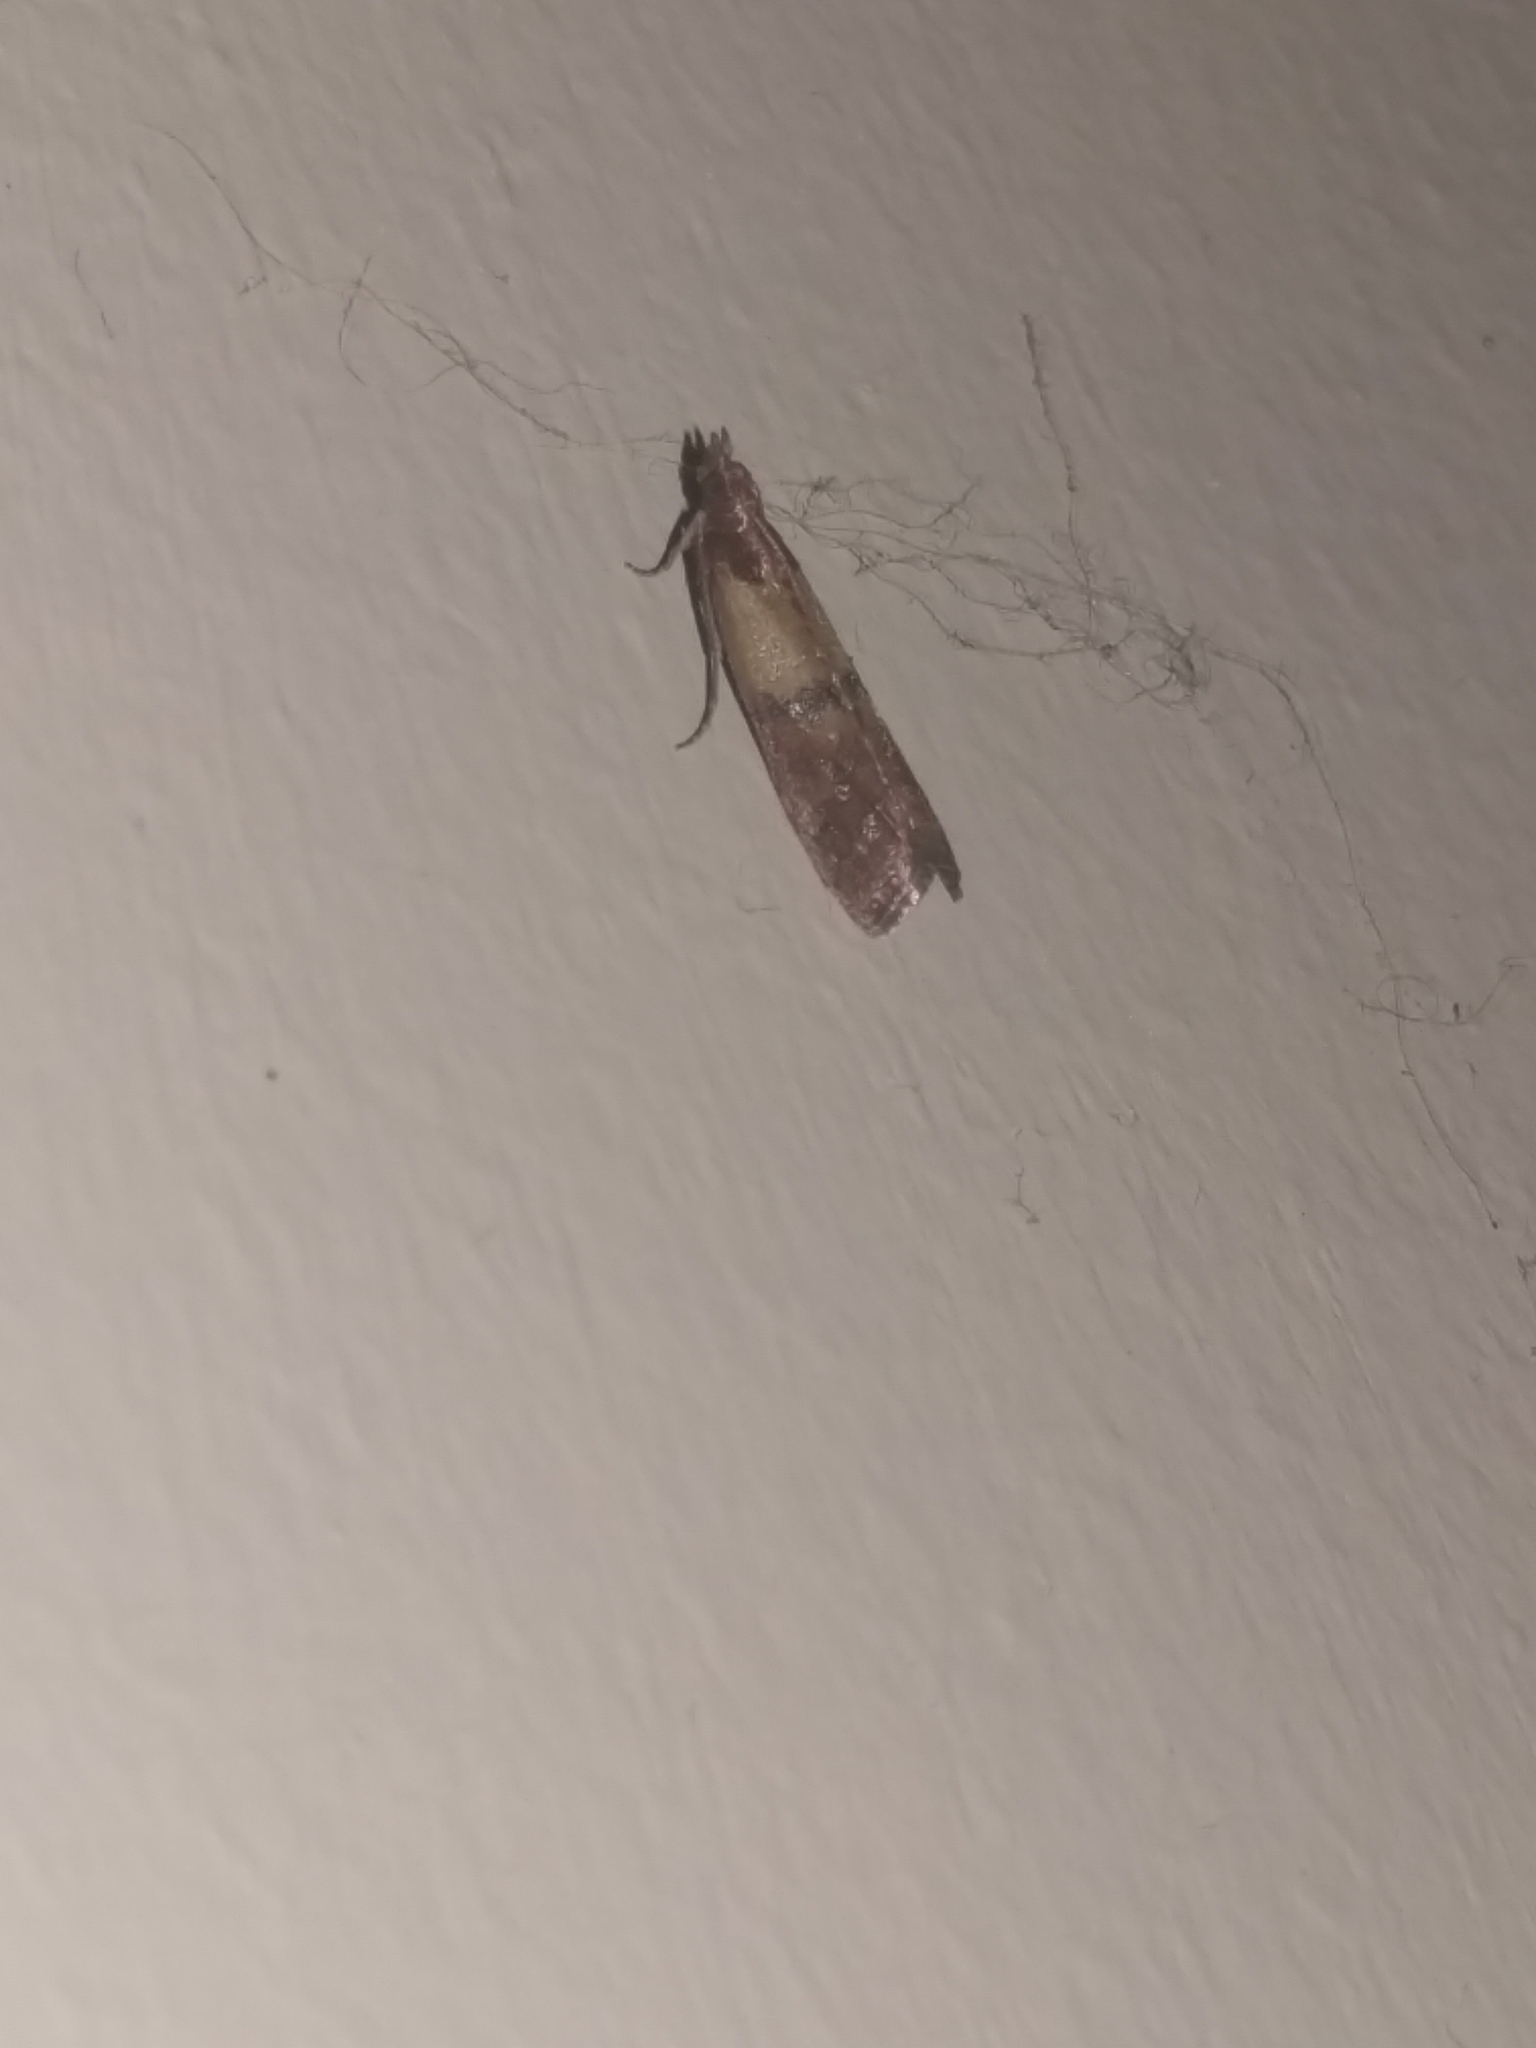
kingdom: Animalia
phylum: Arthropoda
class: Insecta
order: Lepidoptera
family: Pyralidae
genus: Plodia
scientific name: Plodia interpunctella
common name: Indian meal moth
